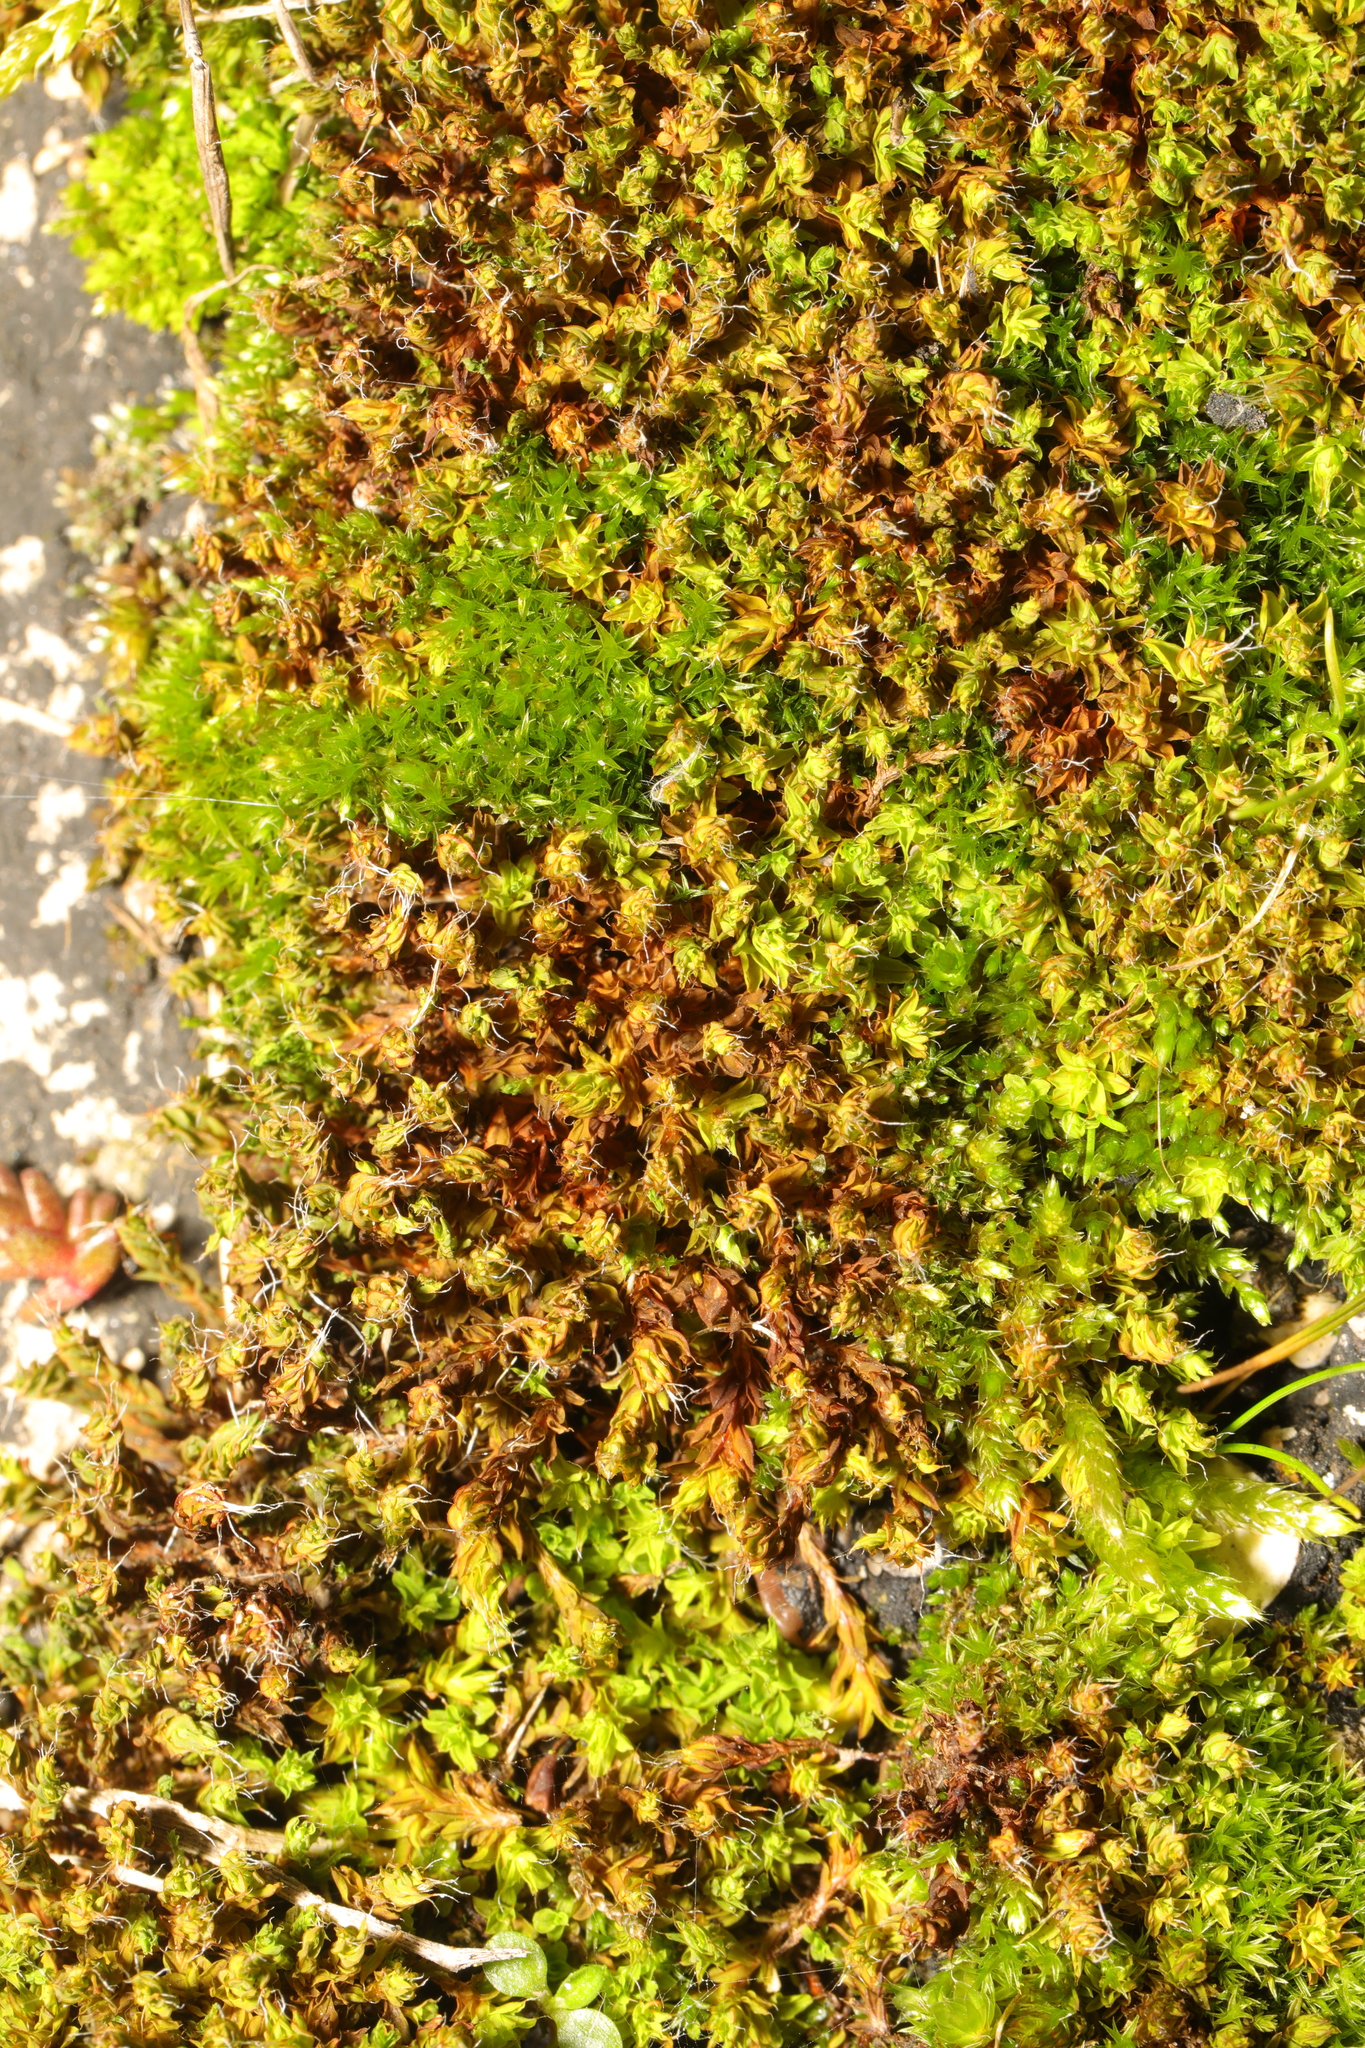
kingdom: Plantae
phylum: Bryophyta
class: Bryopsida
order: Pottiales
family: Pottiaceae
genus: Syntrichia
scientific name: Syntrichia ruralis
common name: Sidewalk screw moss
